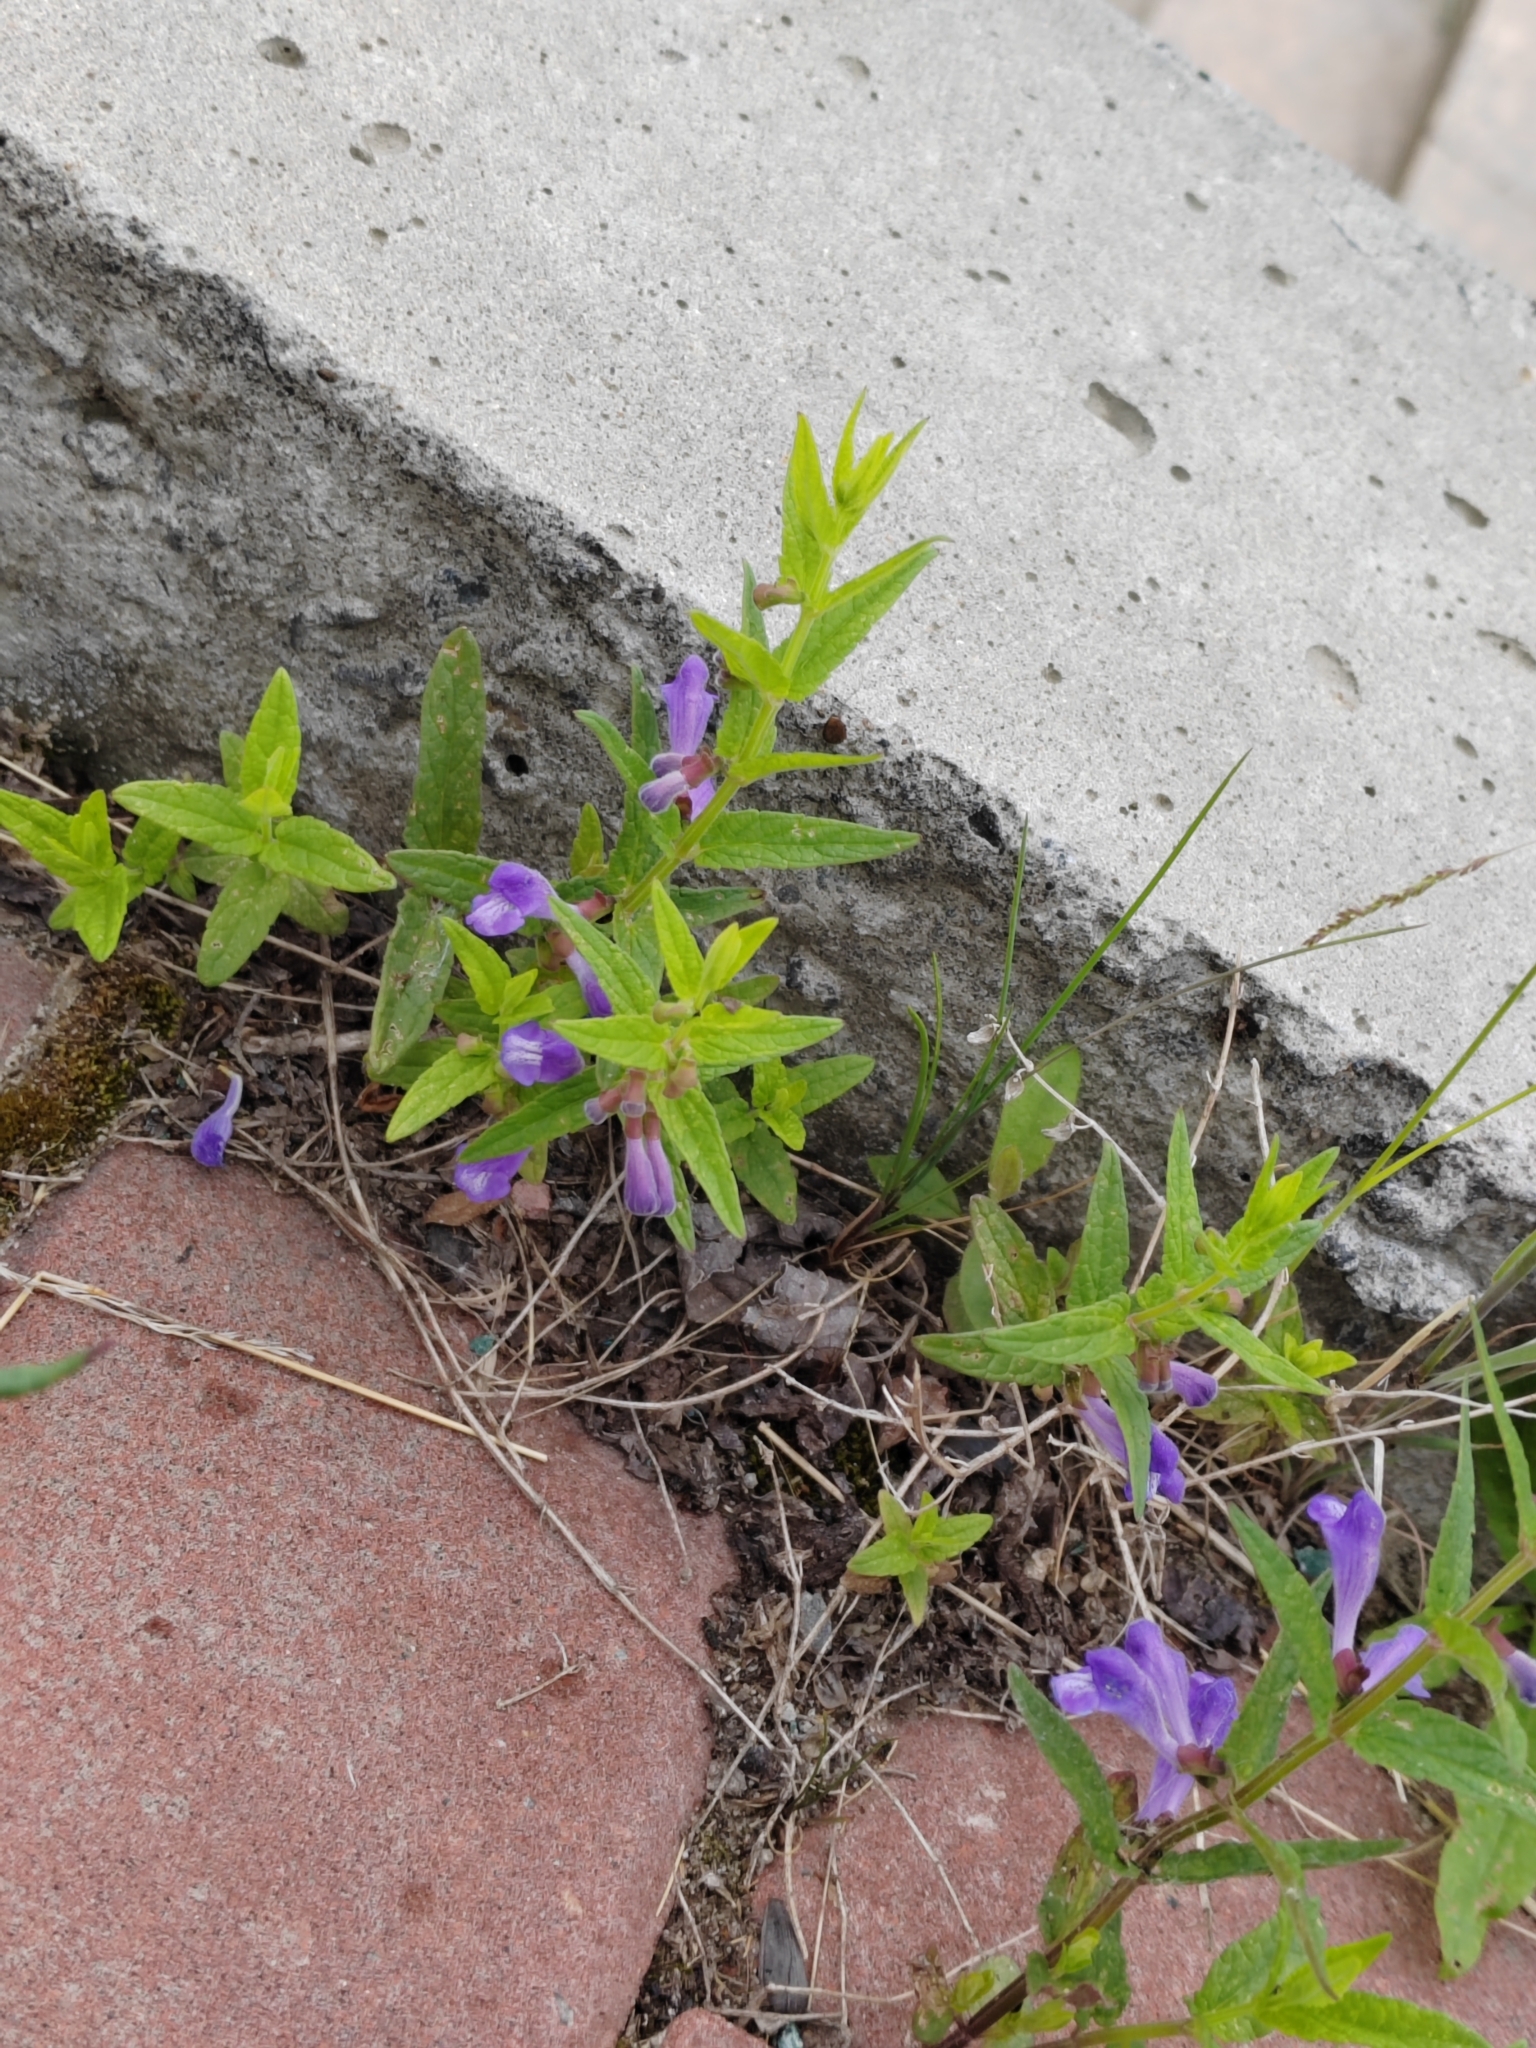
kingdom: Plantae
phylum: Tracheophyta
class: Magnoliopsida
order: Lamiales
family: Lamiaceae
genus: Scutellaria
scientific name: Scutellaria galericulata
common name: Skullcap
